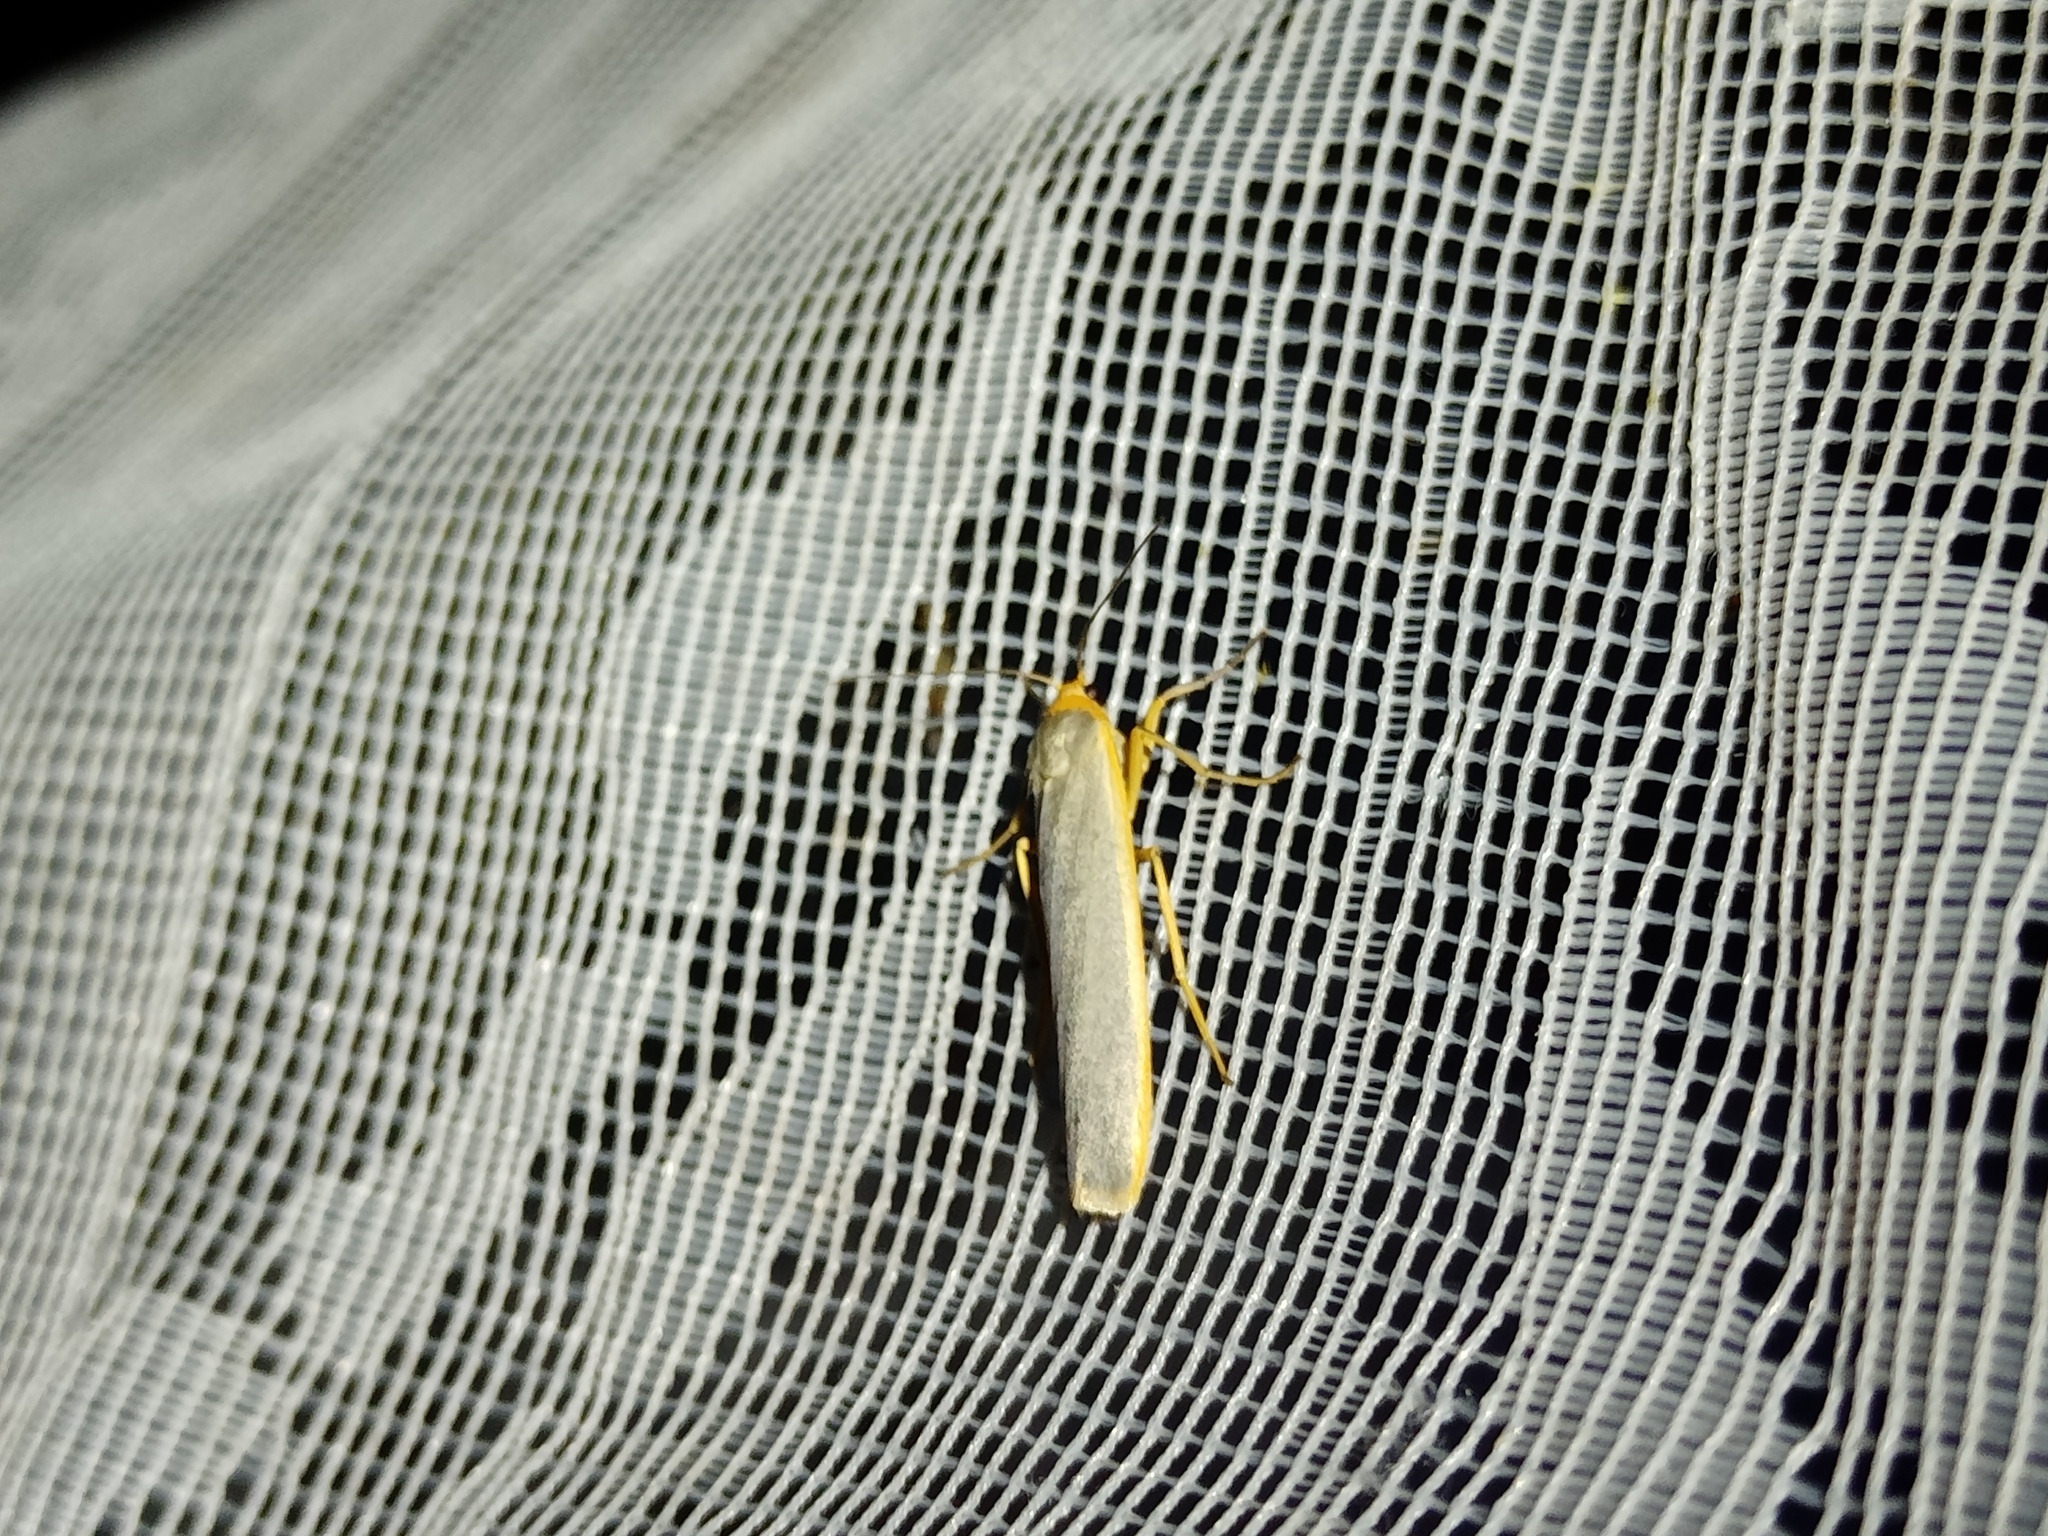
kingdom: Animalia
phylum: Arthropoda
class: Insecta
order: Lepidoptera
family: Erebidae
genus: Manulea
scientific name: Manulea complana
